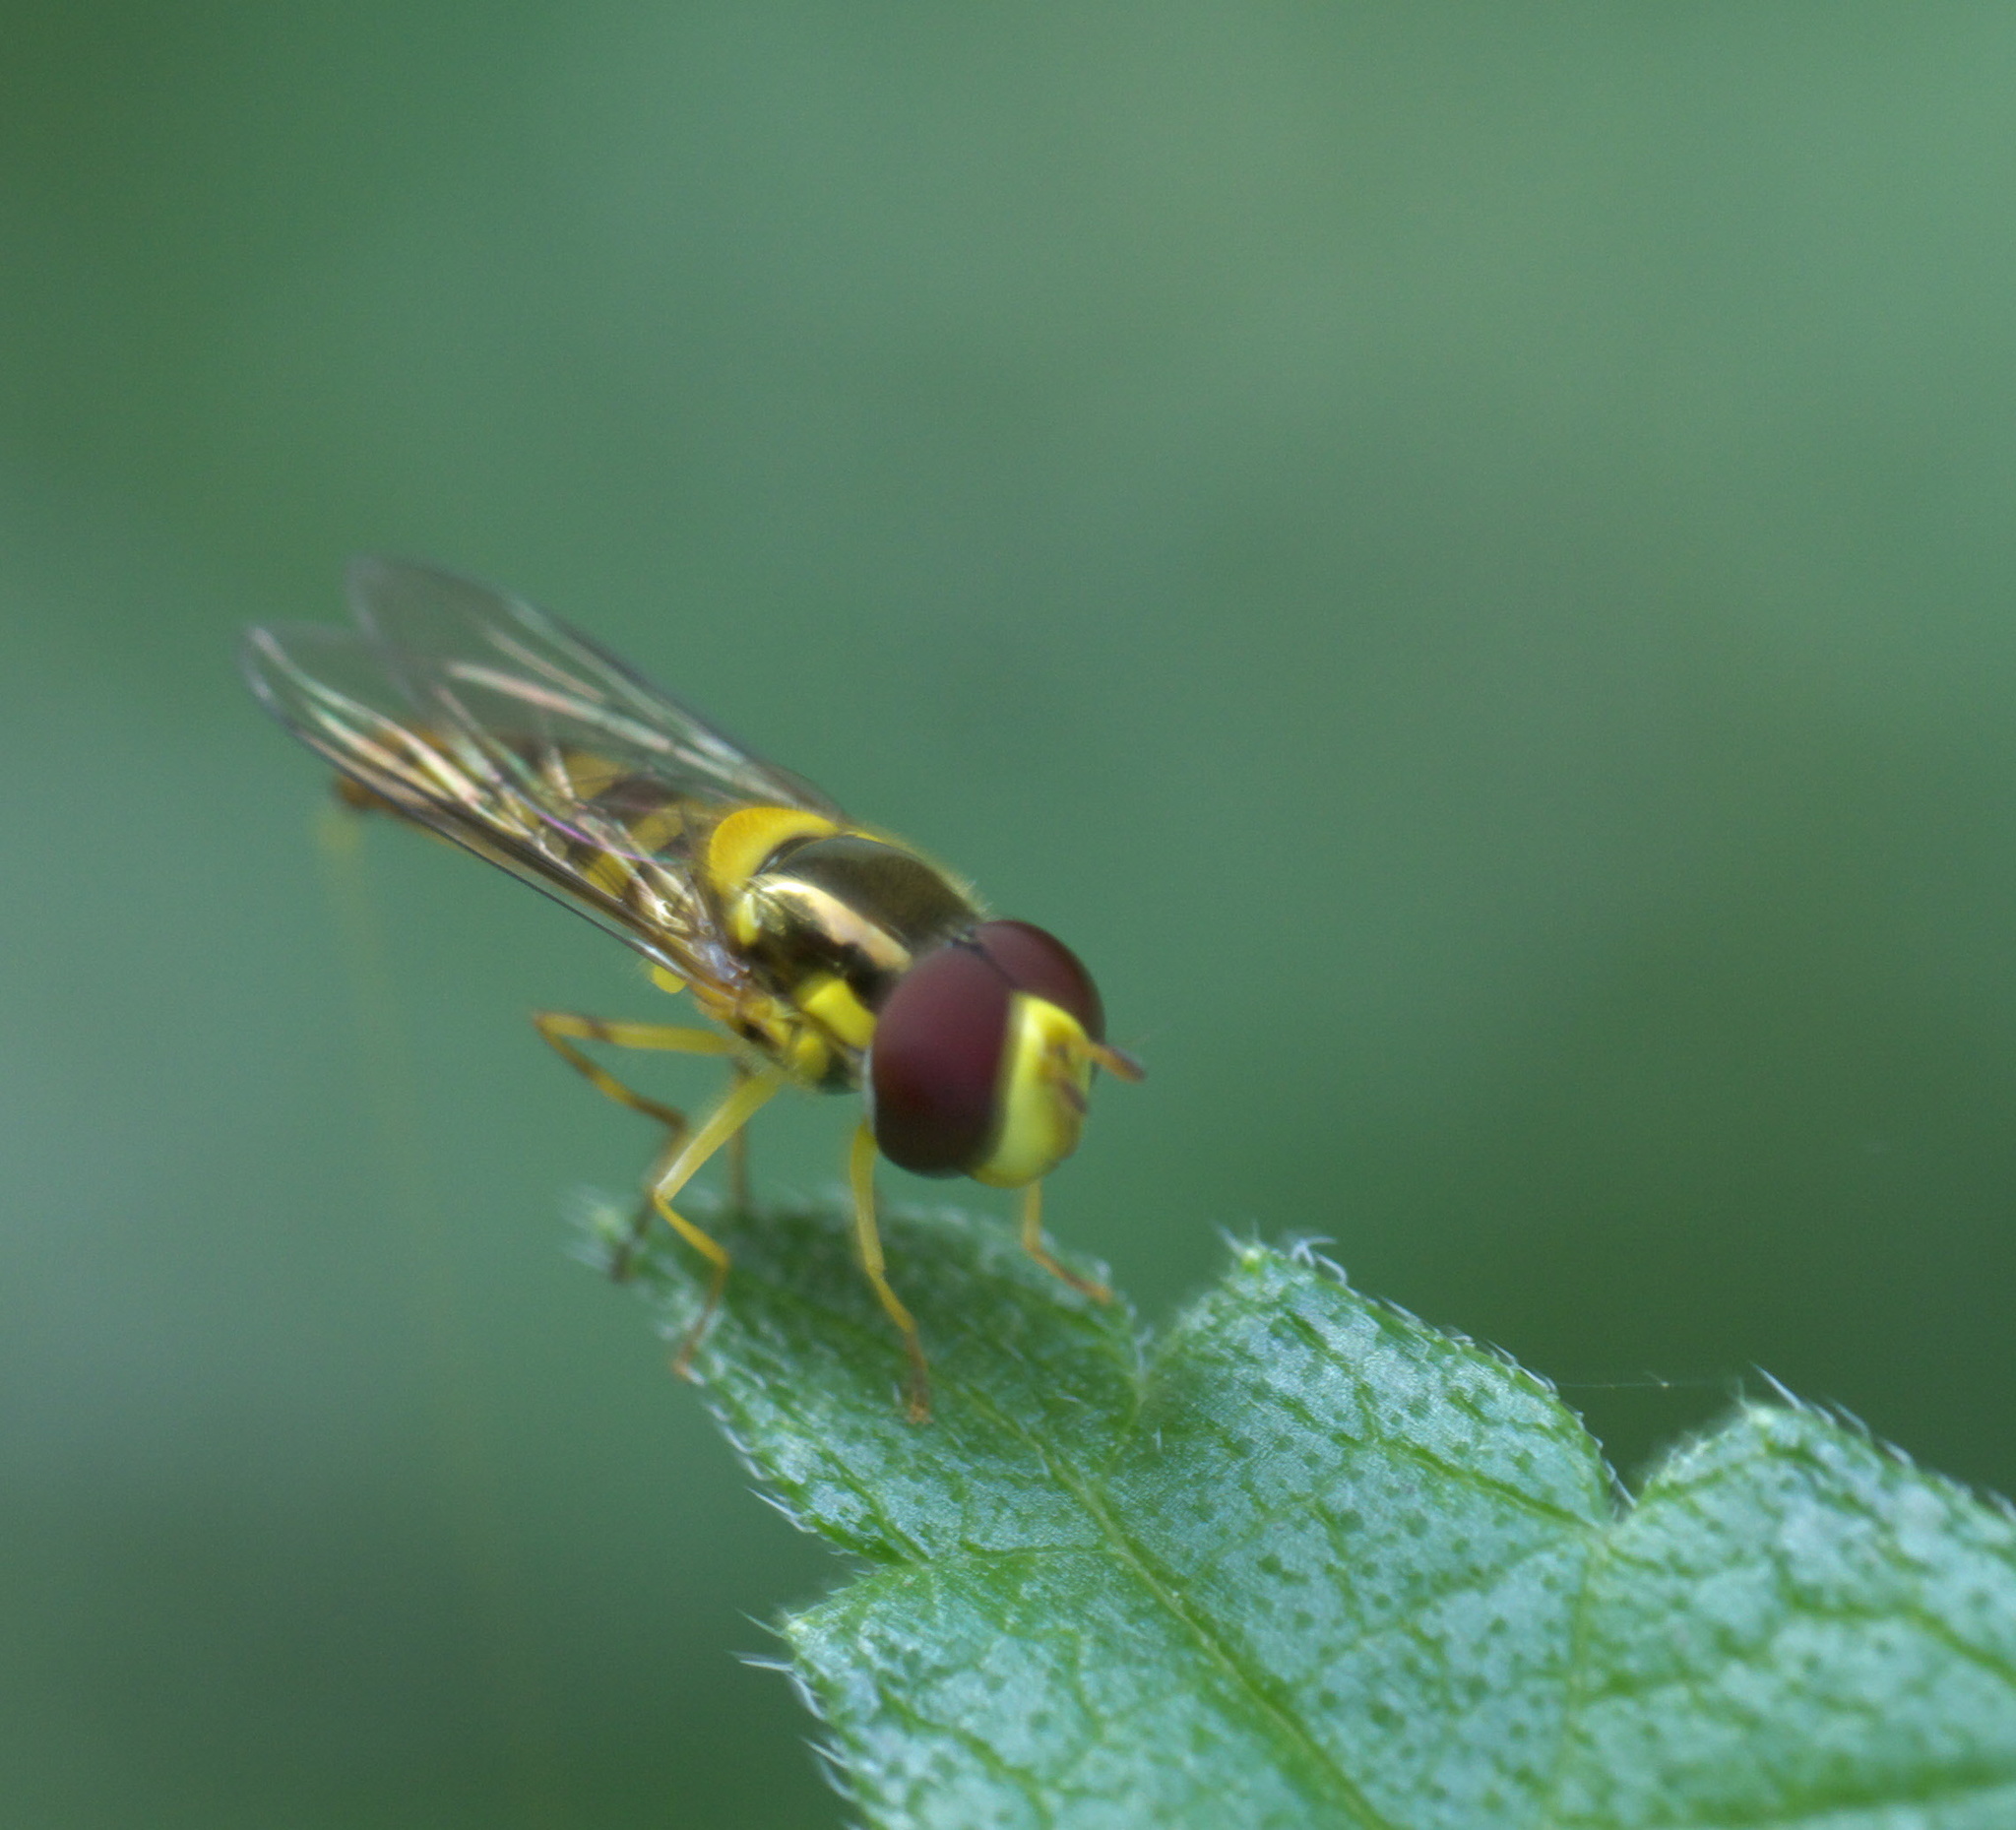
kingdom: Animalia
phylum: Arthropoda
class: Insecta
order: Diptera
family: Syrphidae
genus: Allograpta
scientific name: Allograpta obliqua
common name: Common oblique syrphid
